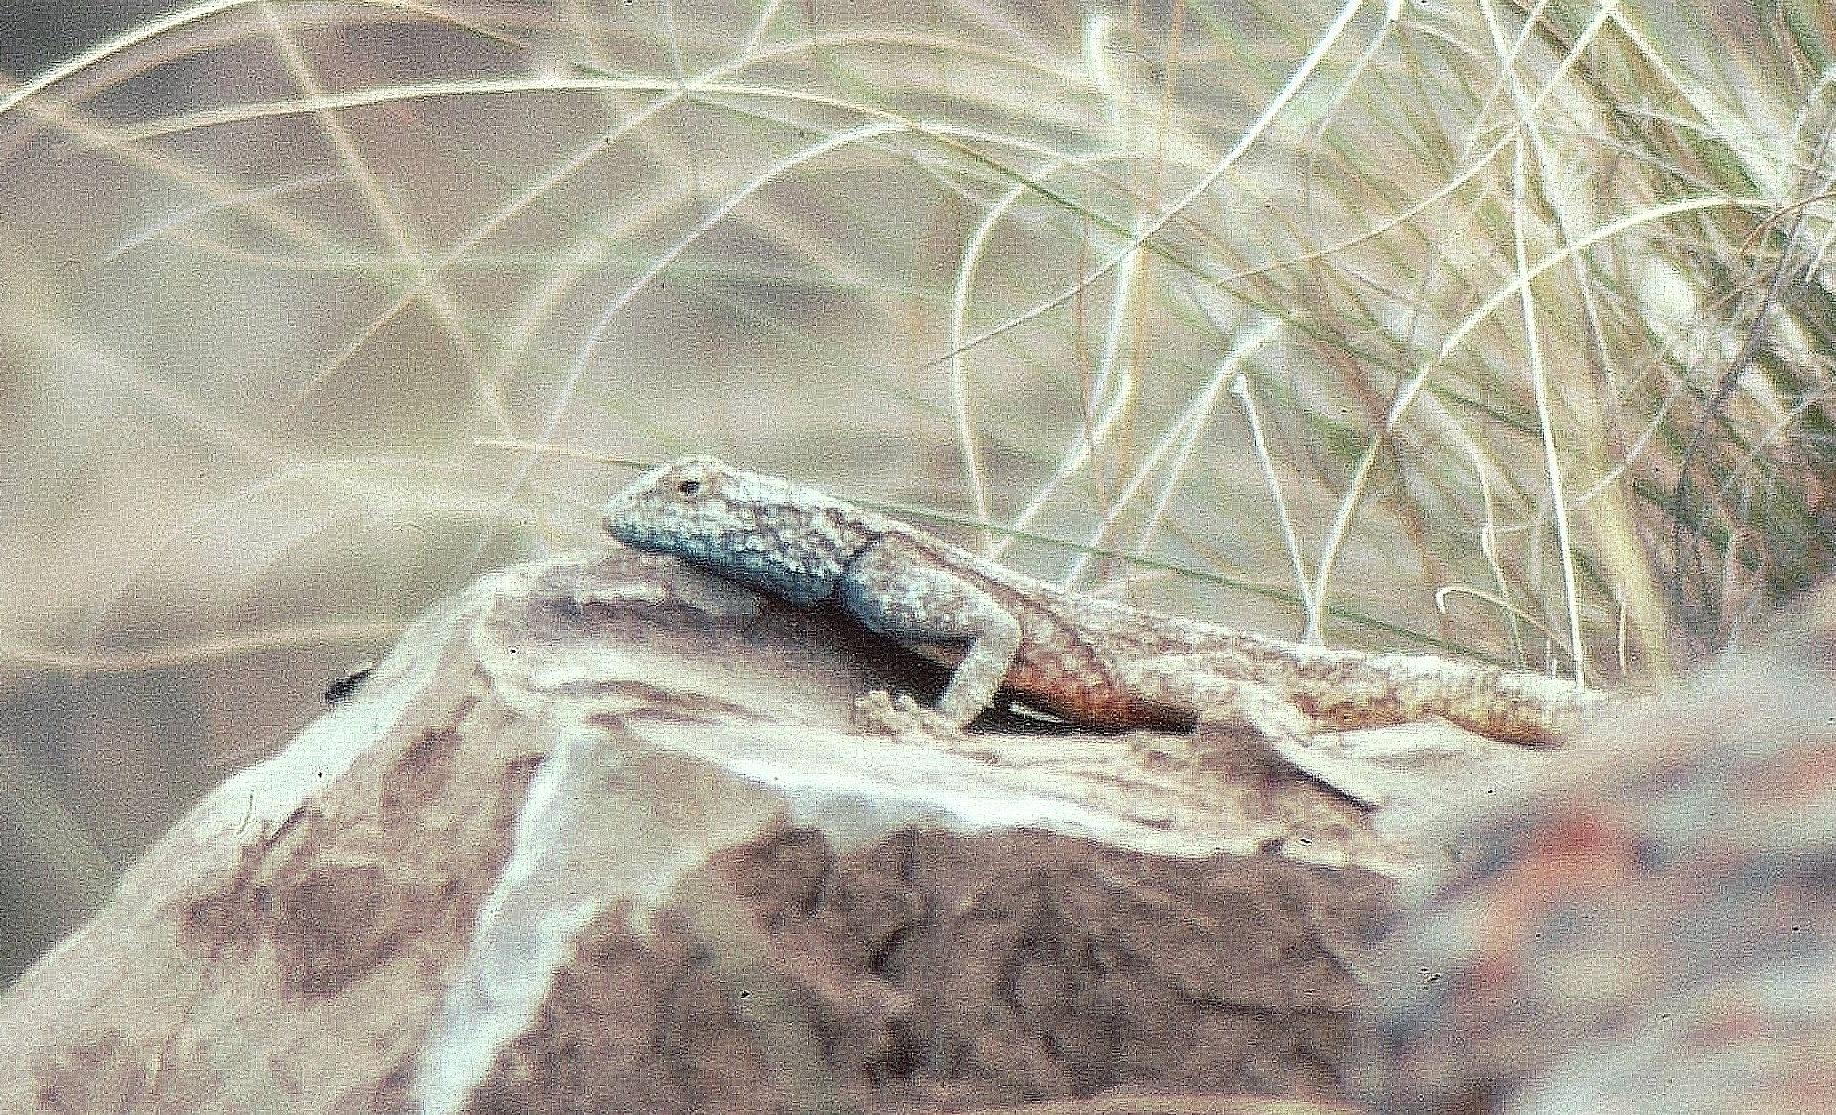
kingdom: Animalia
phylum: Chordata
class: Squamata
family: Agamidae
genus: Agama
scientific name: Agama atra
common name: Southern african rock agama
